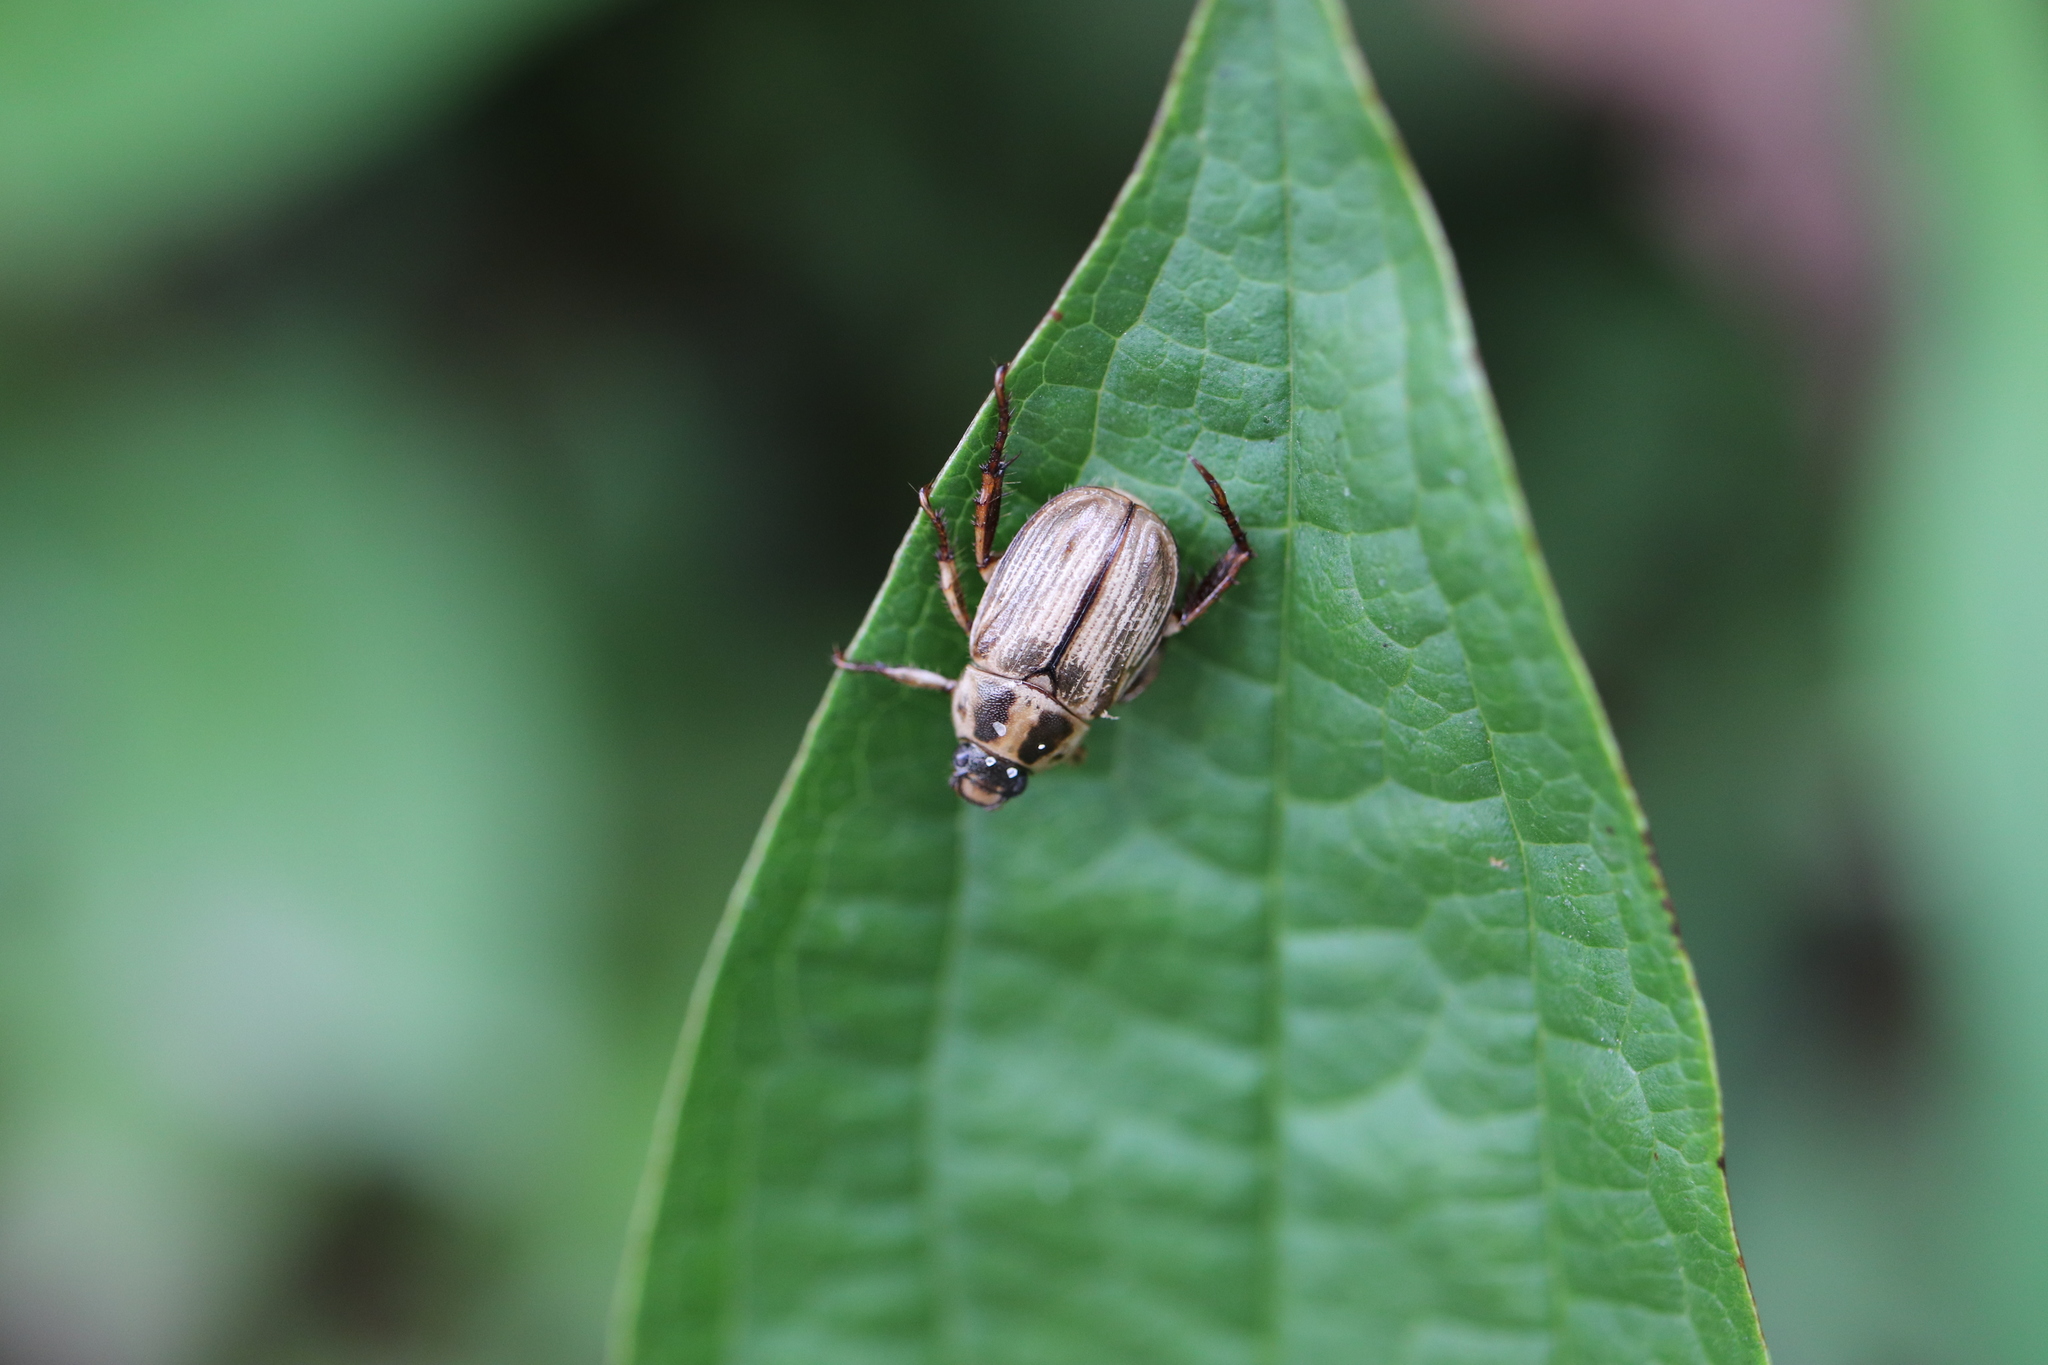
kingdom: Animalia
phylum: Arthropoda
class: Insecta
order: Coleoptera
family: Scarabaeidae
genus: Exomala
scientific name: Exomala orientalis
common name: Oriental beetle
